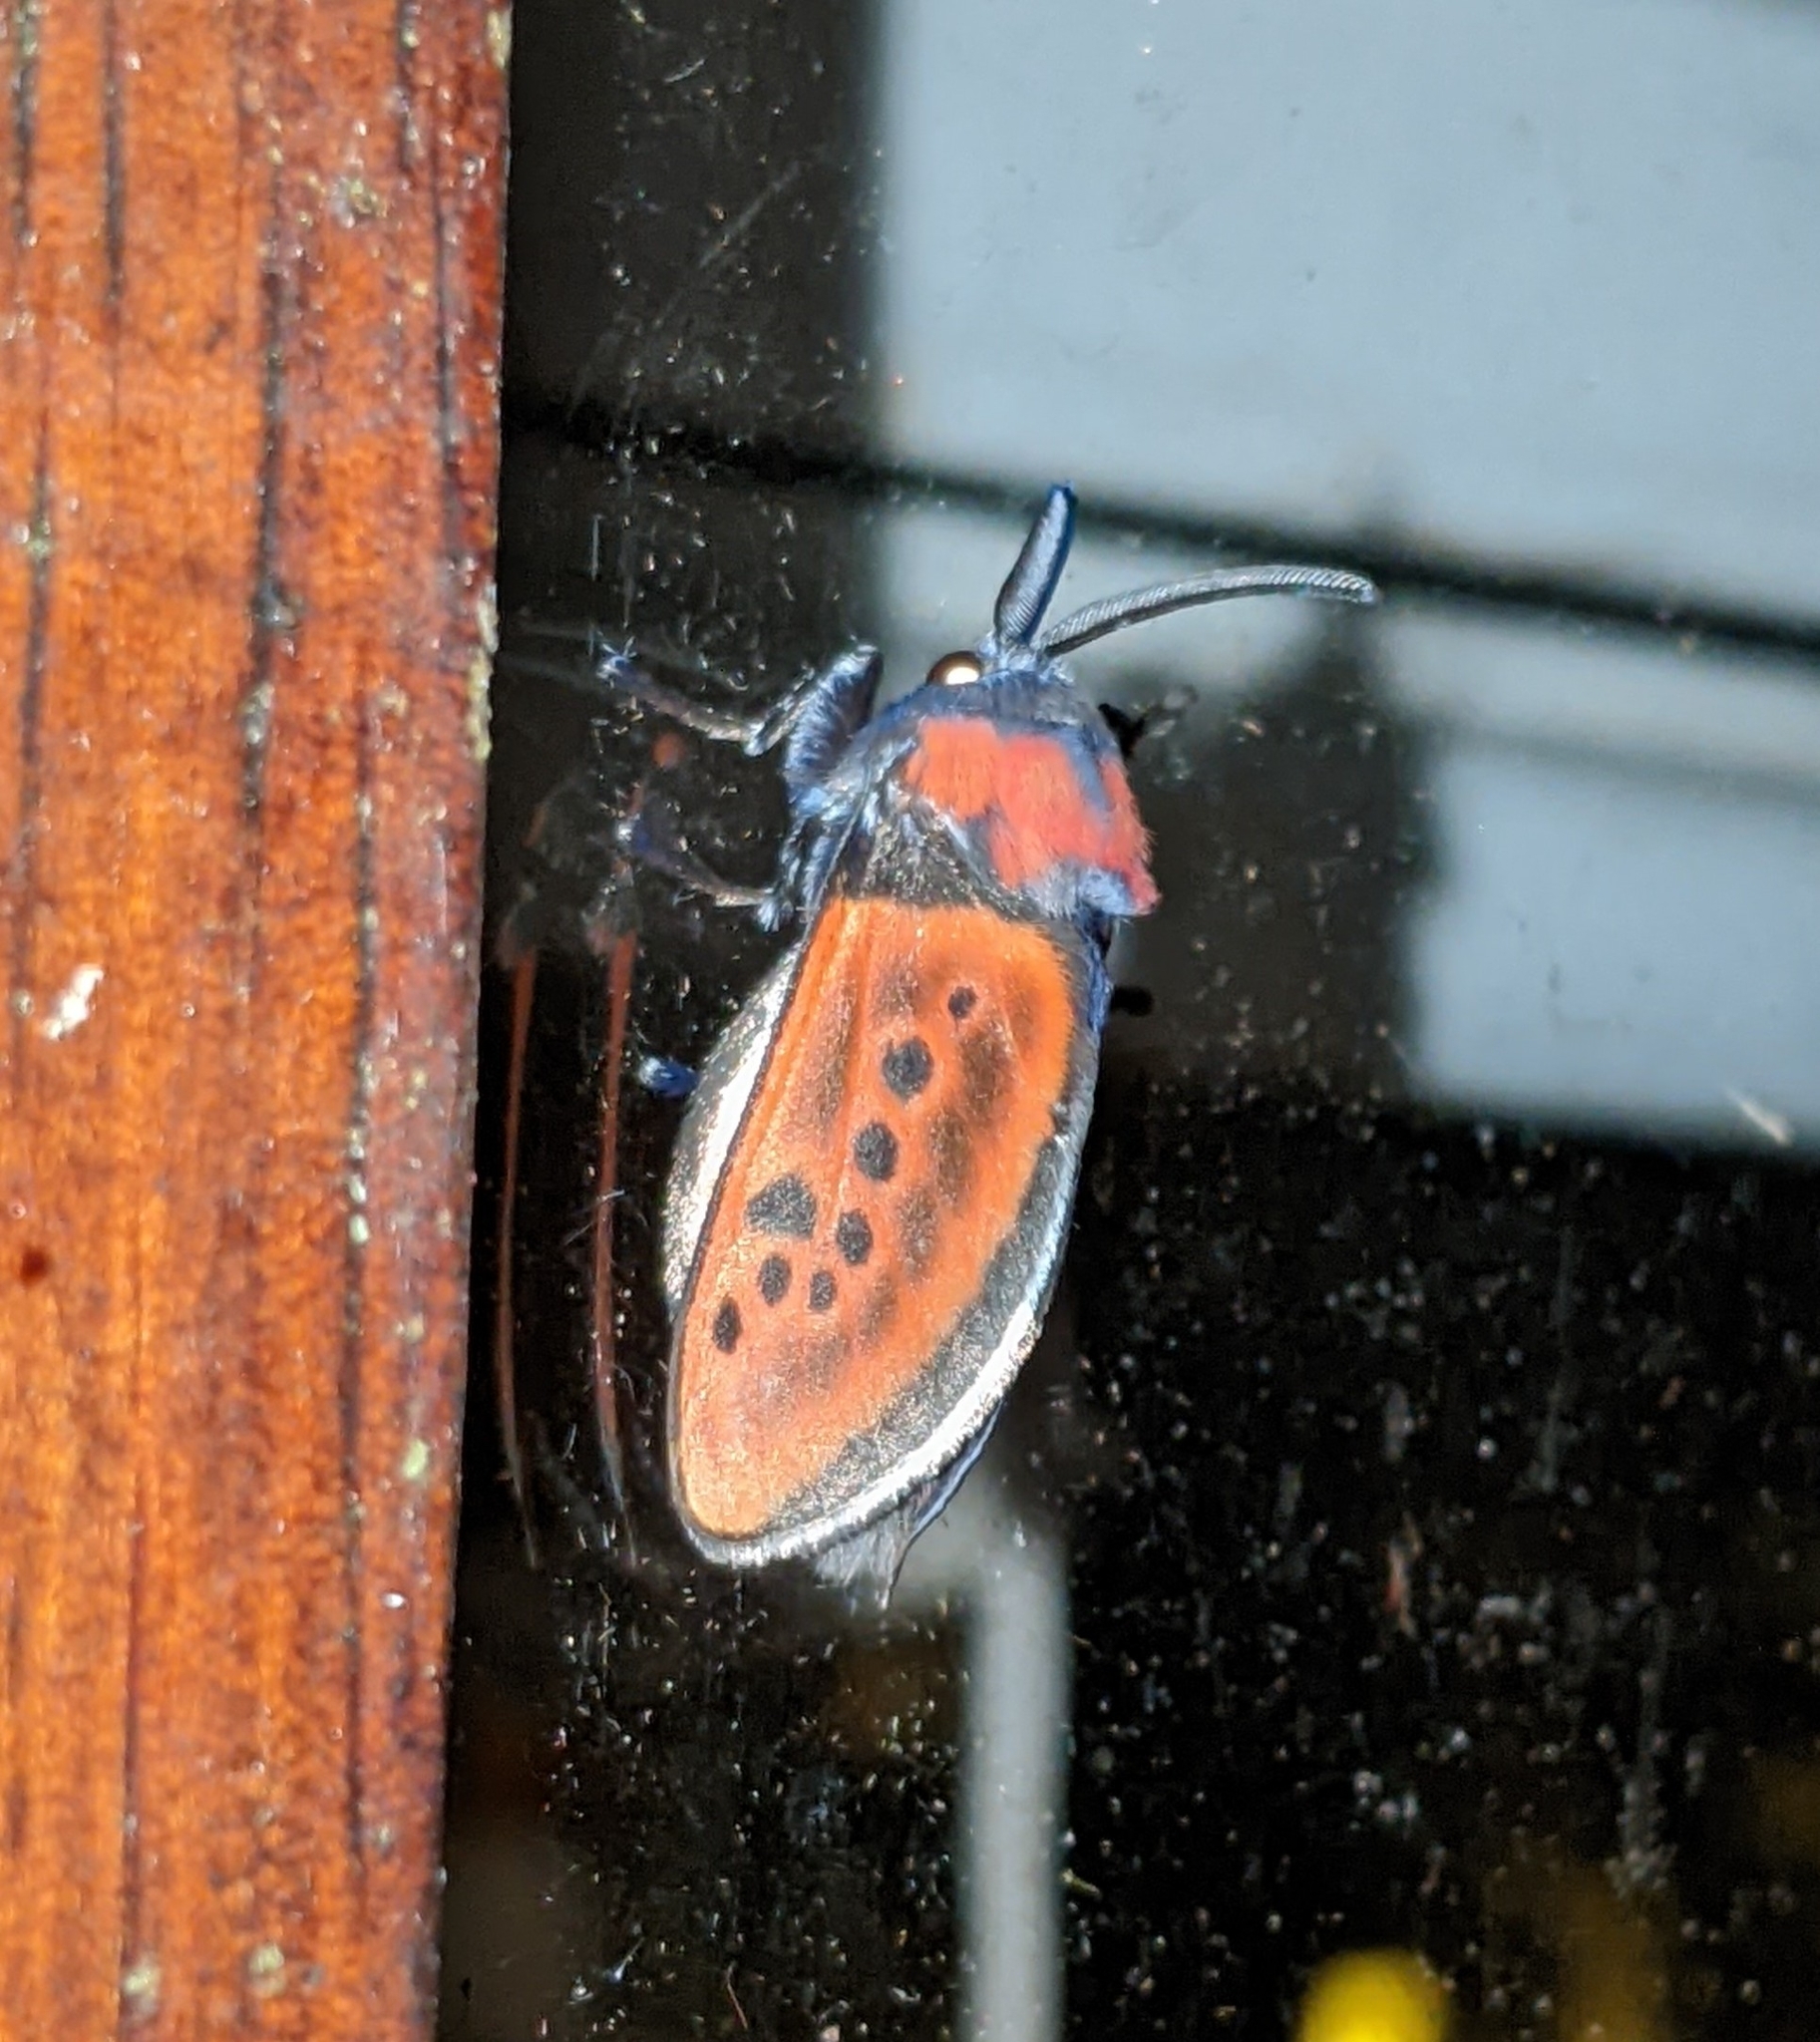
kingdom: Animalia
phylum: Arthropoda
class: Insecta
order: Lepidoptera
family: Megalopygidae
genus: Langucys
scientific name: Langucys nigropuncta
